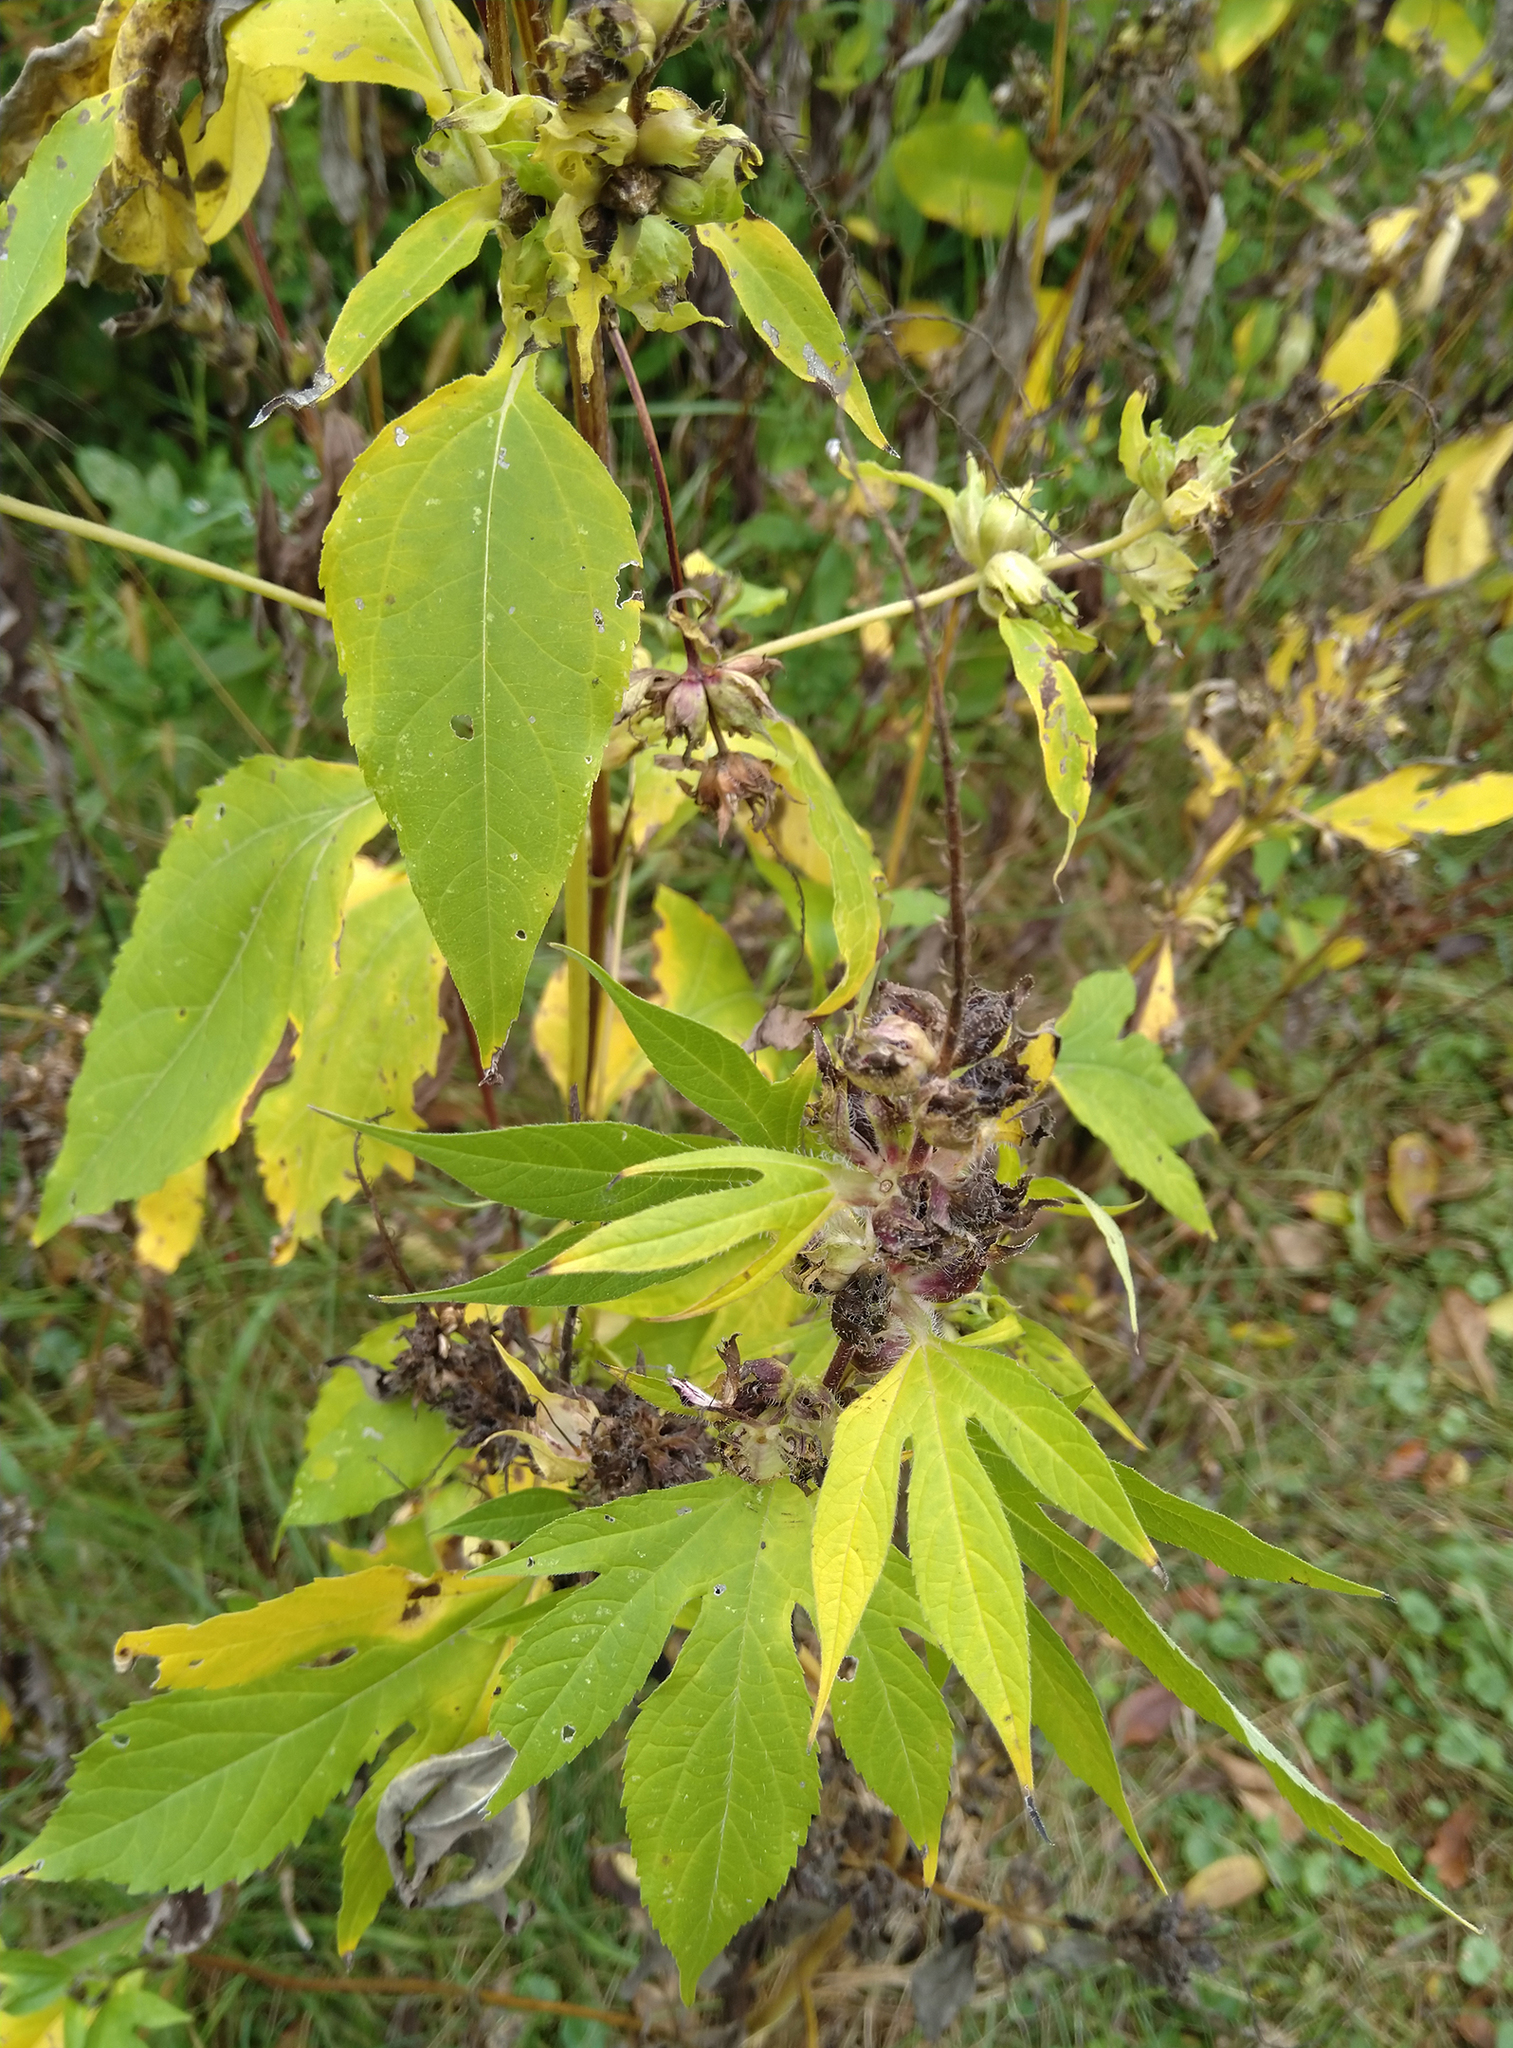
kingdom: Plantae
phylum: Tracheophyta
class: Magnoliopsida
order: Asterales
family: Asteraceae
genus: Ambrosia
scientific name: Ambrosia trifida
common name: Giant ragweed
